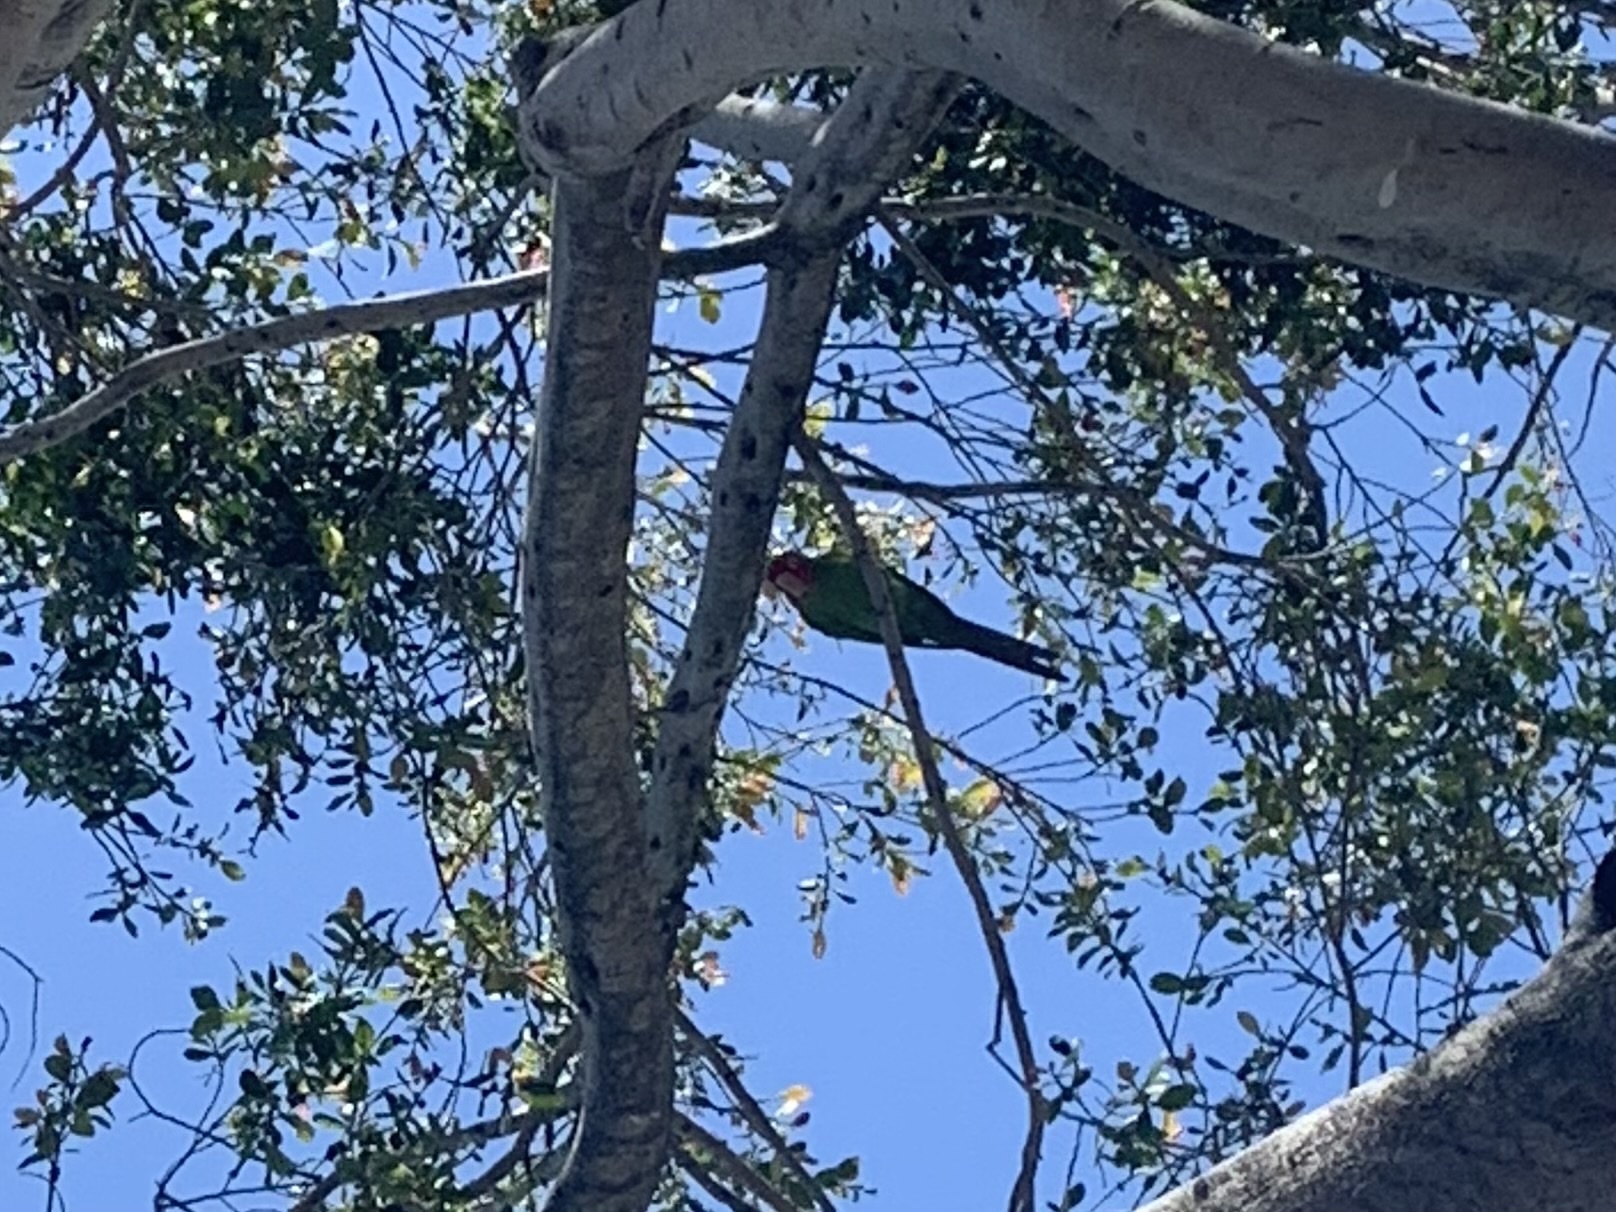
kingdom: Animalia
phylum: Chordata
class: Aves
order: Psittaciformes
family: Psittacidae
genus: Aratinga
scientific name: Aratinga erythrogenys
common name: Red-masked parakeet
